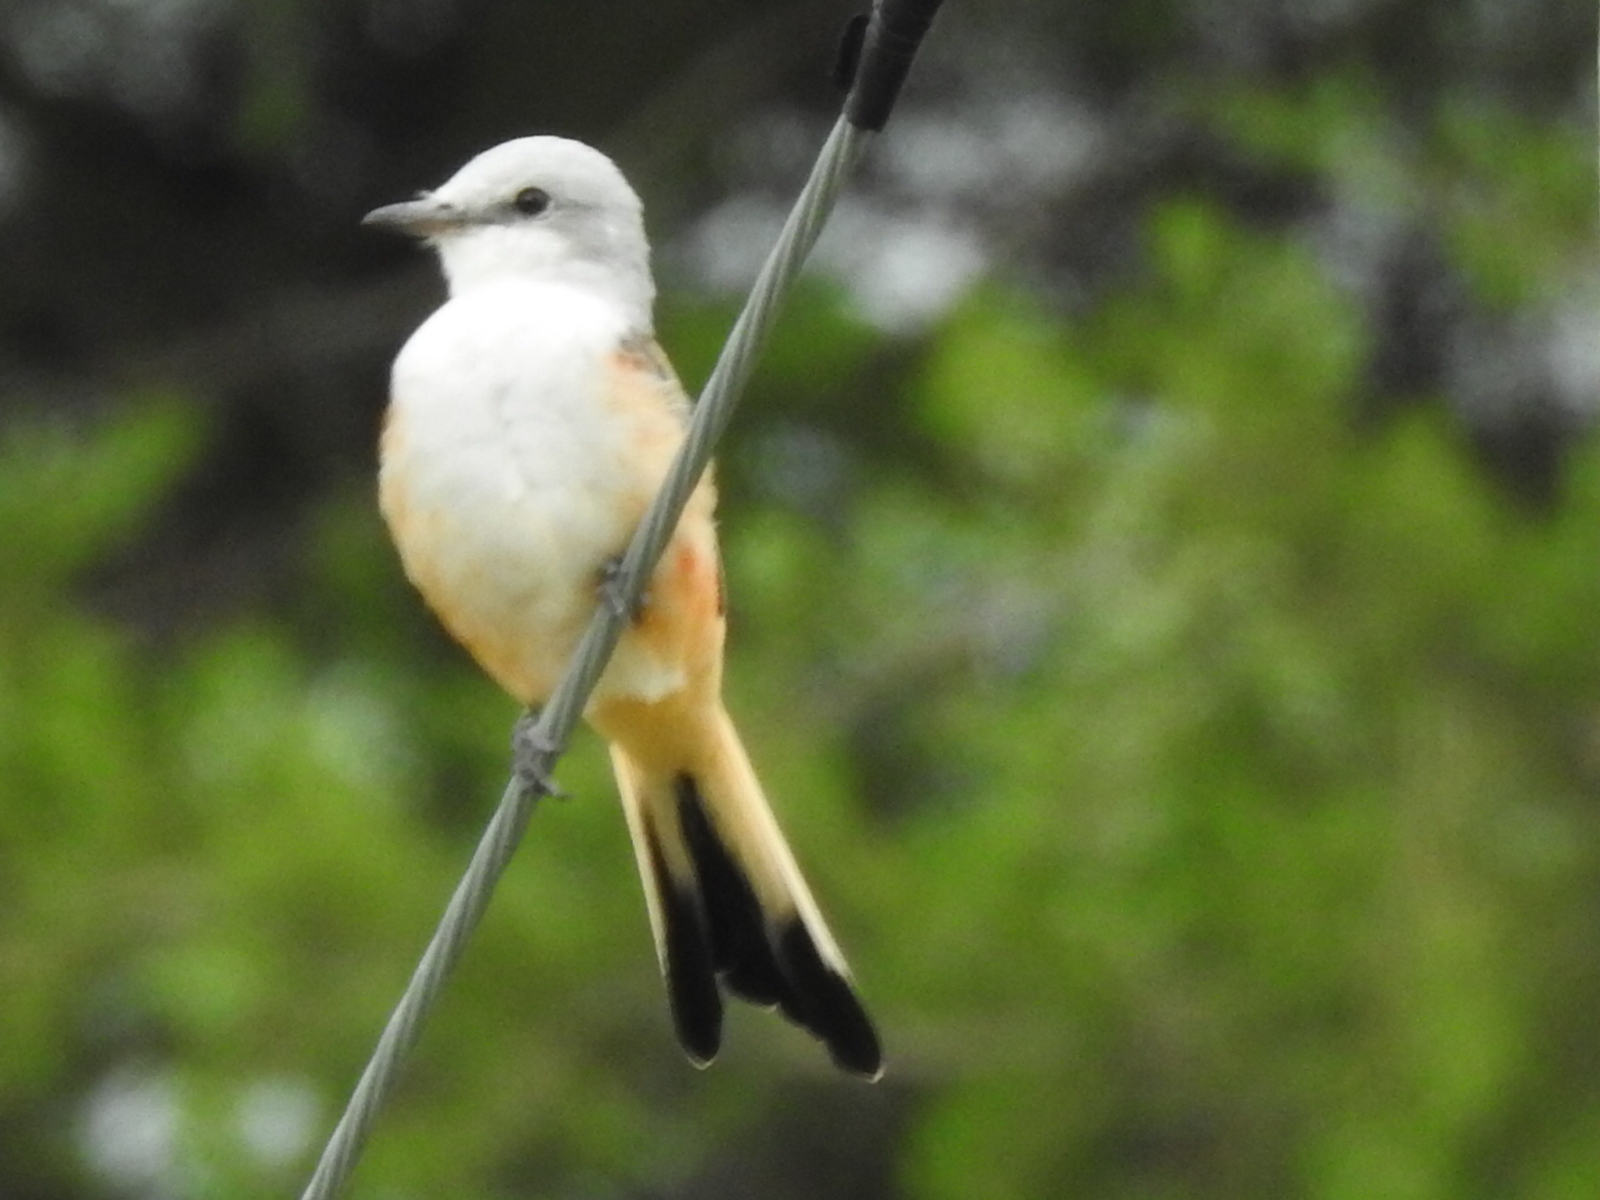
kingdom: Animalia
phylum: Chordata
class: Aves
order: Passeriformes
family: Tyrannidae
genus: Tyrannus
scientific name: Tyrannus forficatus
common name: Scissor-tailed flycatcher
